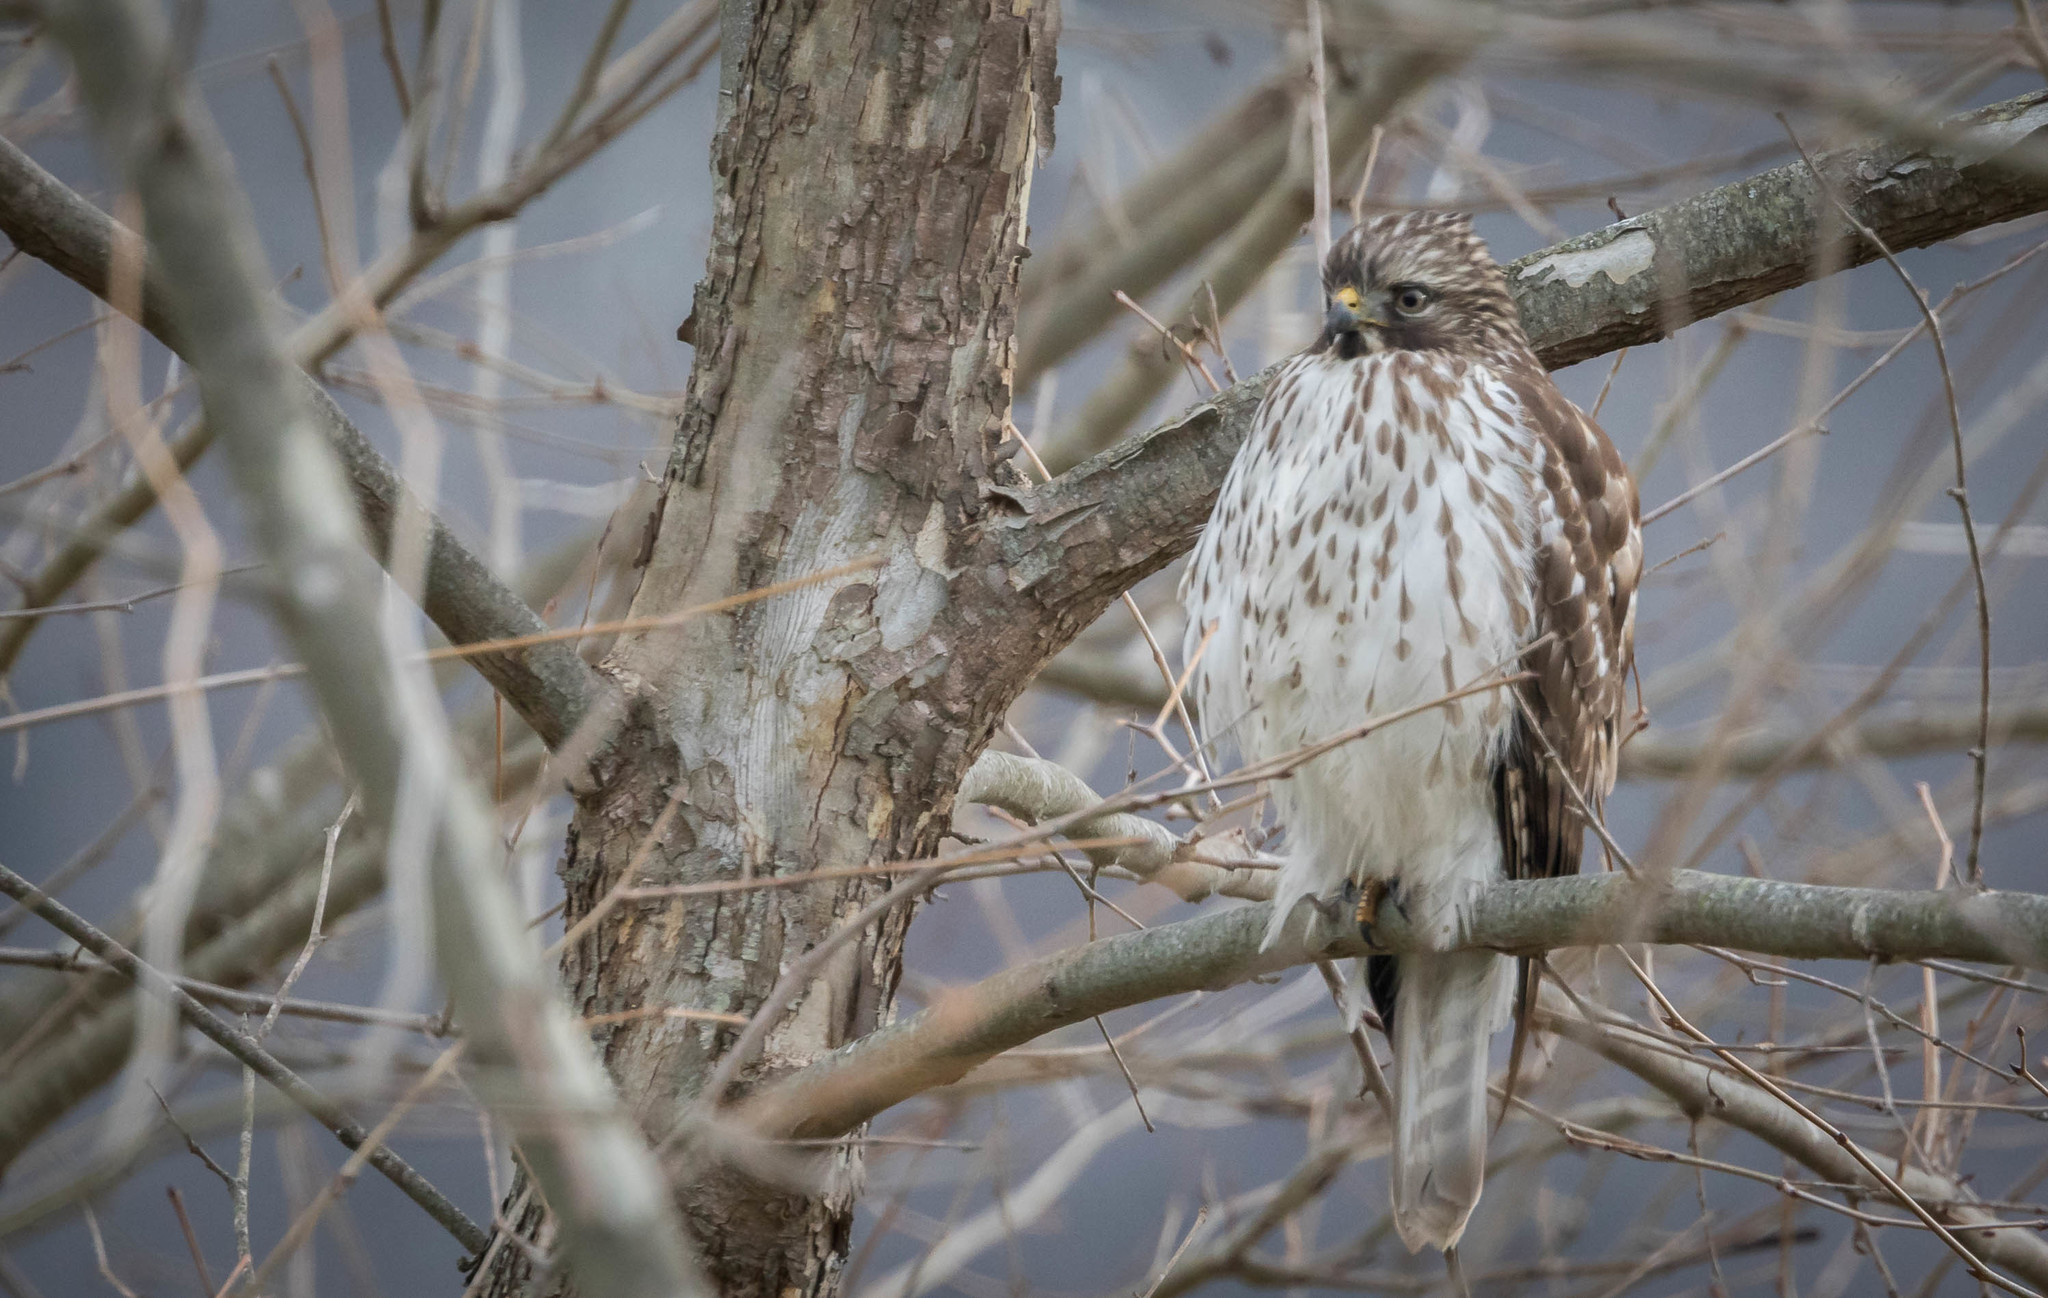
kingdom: Animalia
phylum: Chordata
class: Aves
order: Accipitriformes
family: Accipitridae
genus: Accipiter
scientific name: Accipiter cooperii
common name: Cooper's hawk
